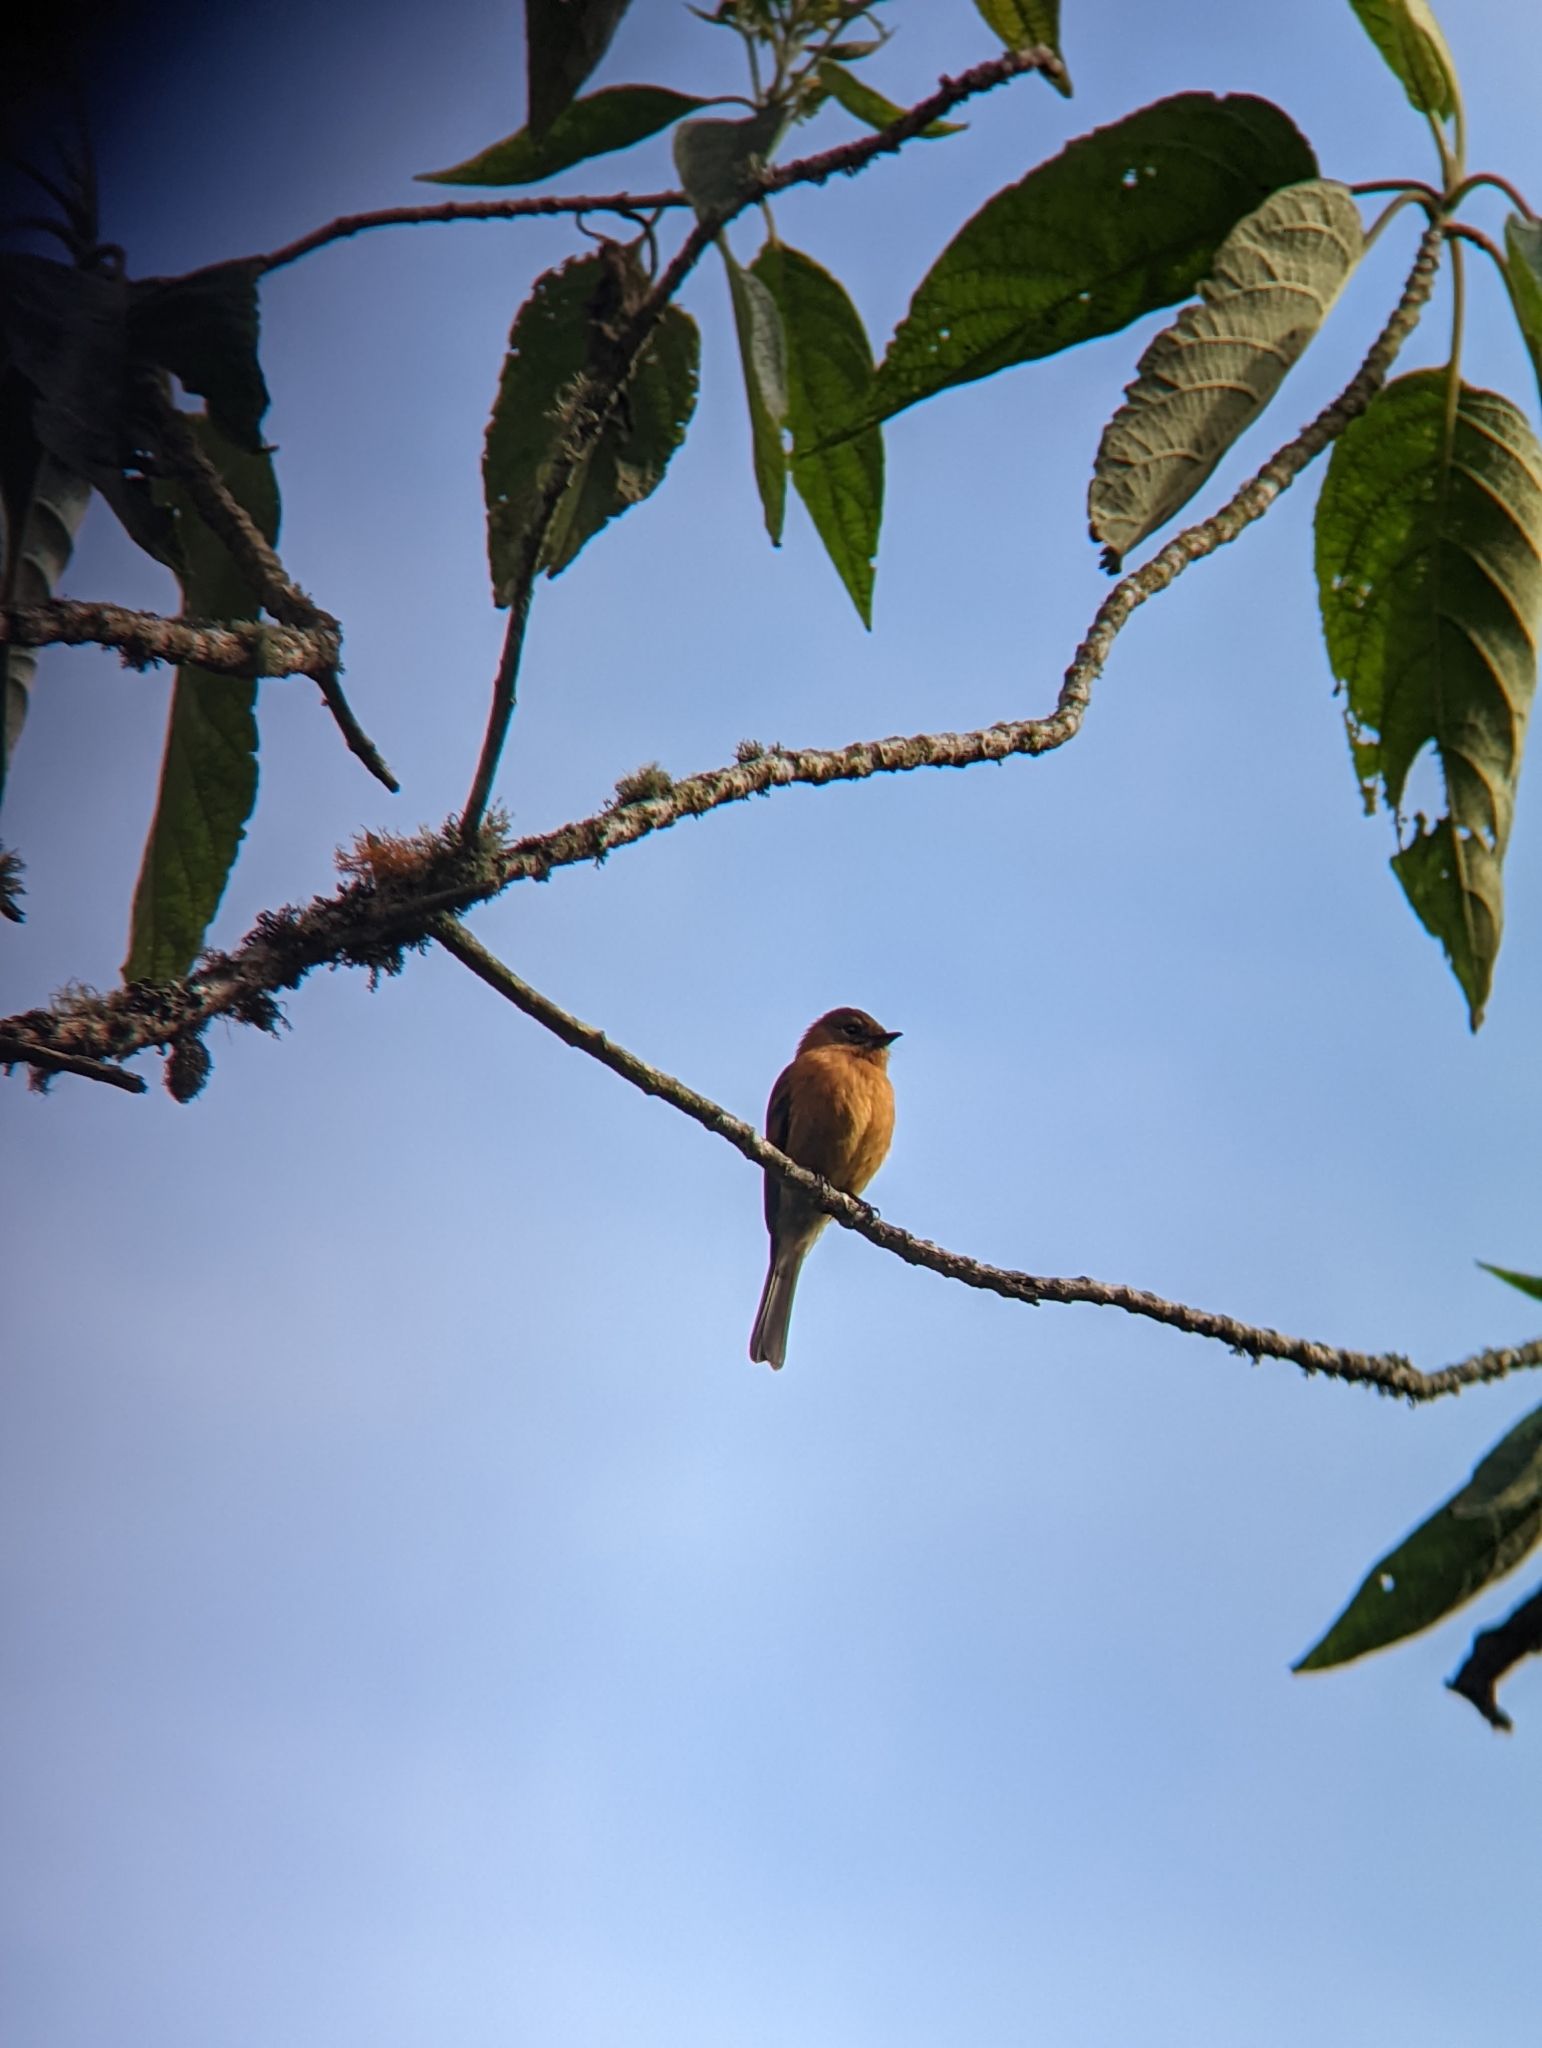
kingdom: Animalia
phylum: Chordata
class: Aves
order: Passeriformes
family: Tyrannidae
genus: Pyrrhomyias
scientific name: Pyrrhomyias cinnamomeus
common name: Cinnamon flycatcher
